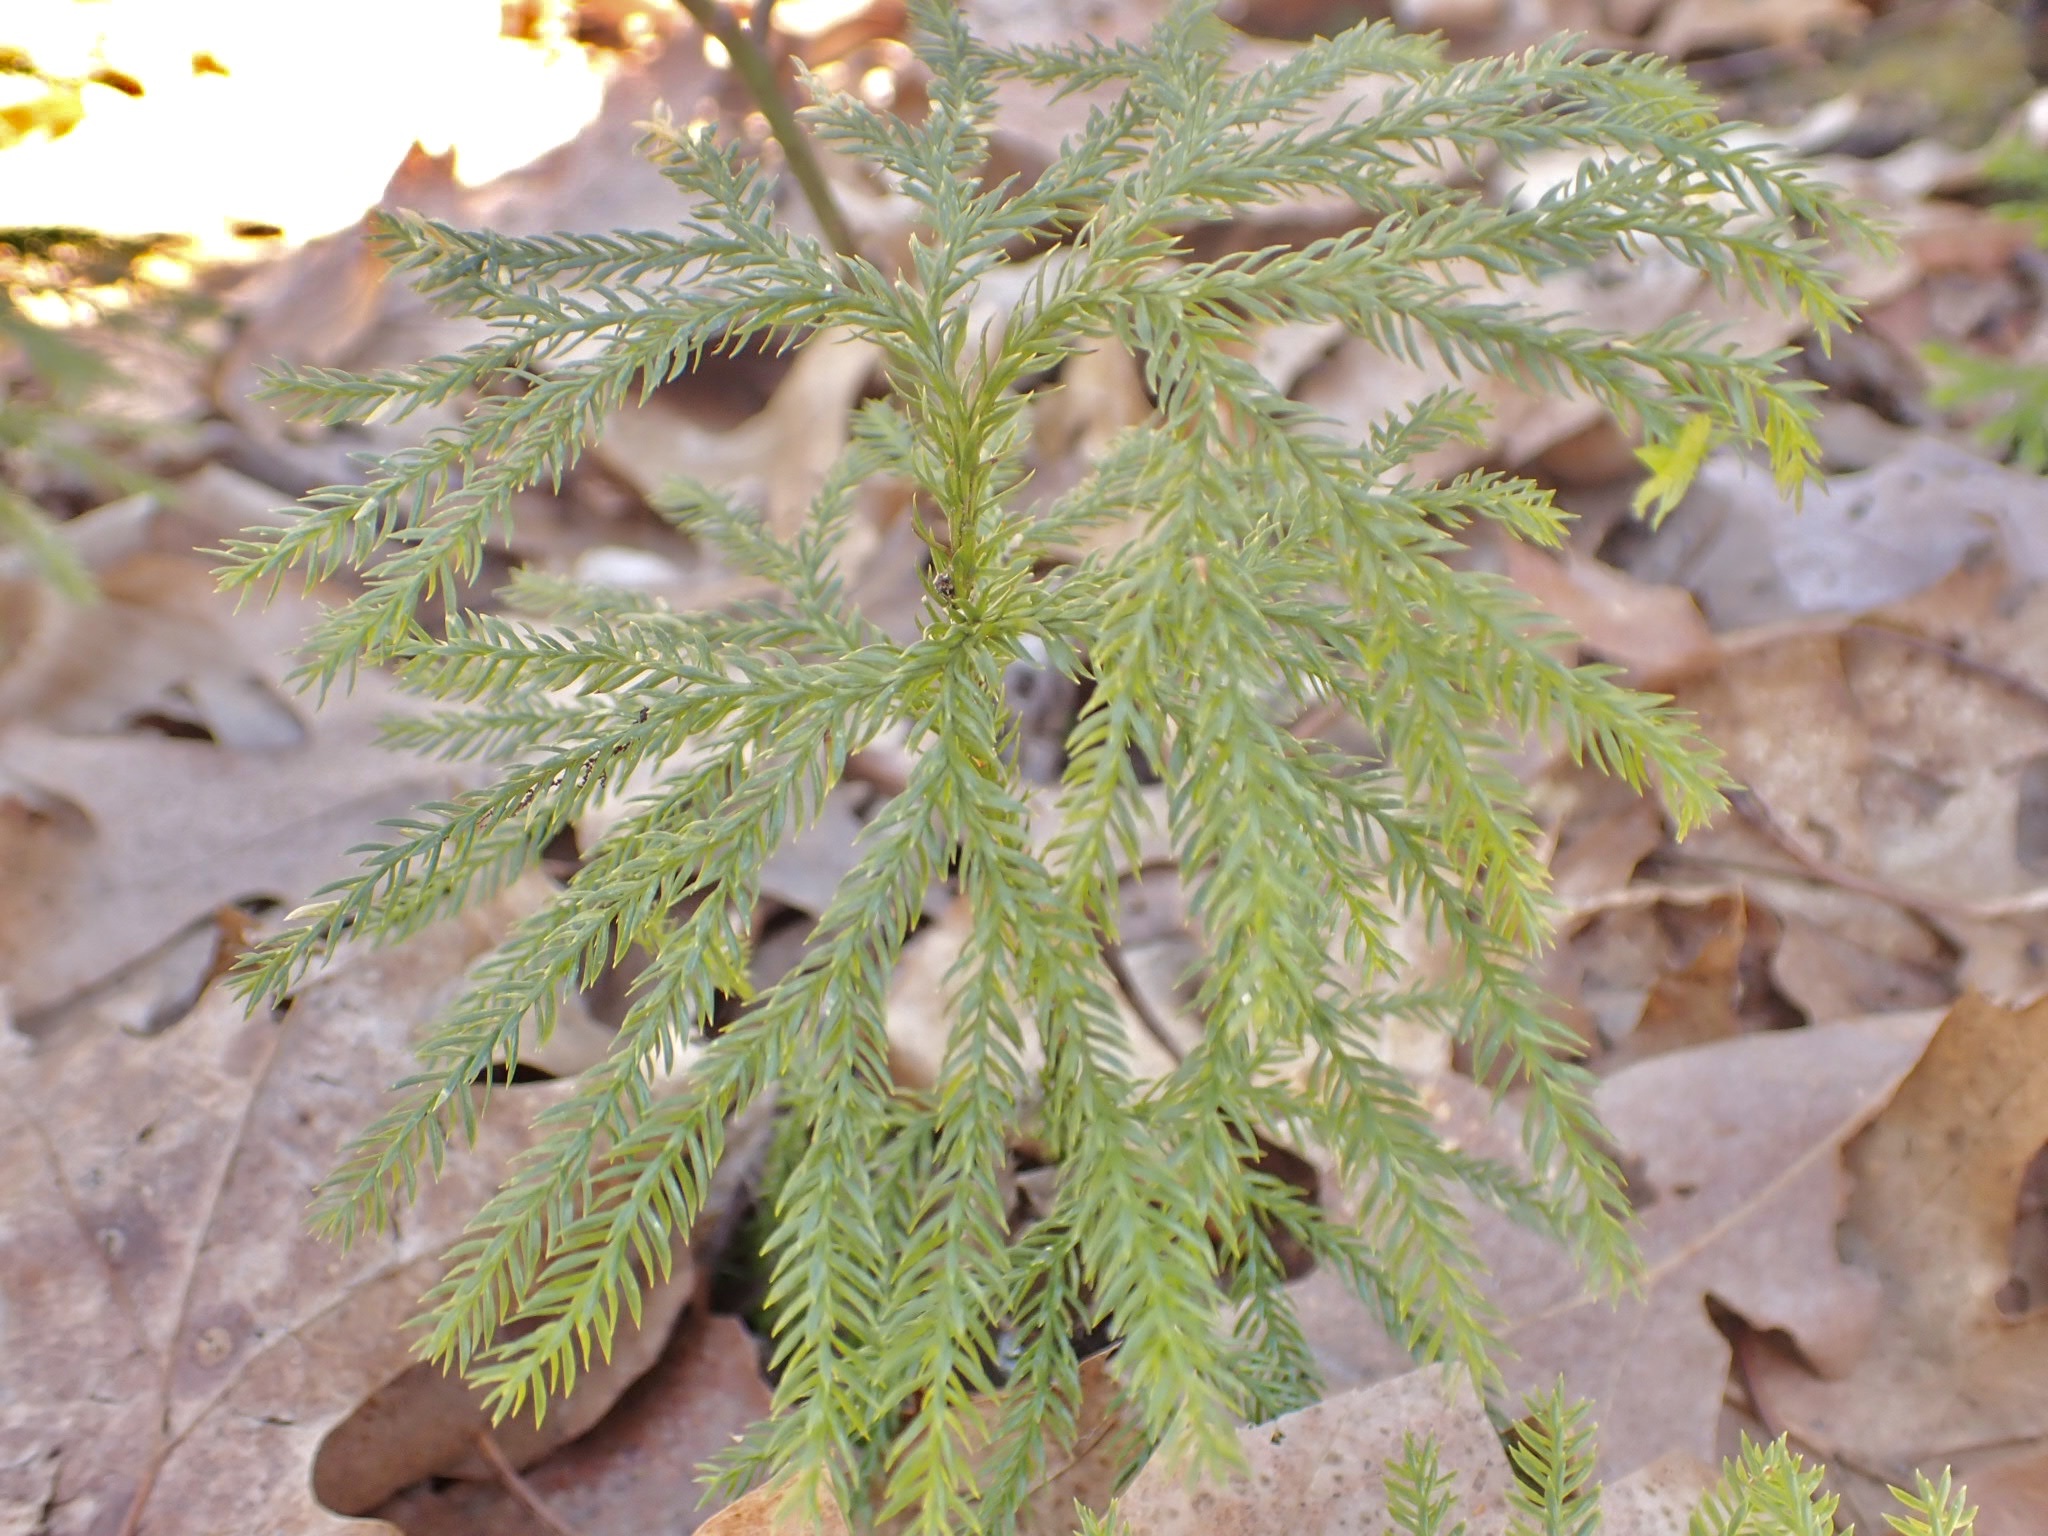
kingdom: Plantae
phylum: Tracheophyta
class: Lycopodiopsida
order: Lycopodiales
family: Lycopodiaceae
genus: Dendrolycopodium
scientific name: Dendrolycopodium obscurum
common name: Common ground-pine
